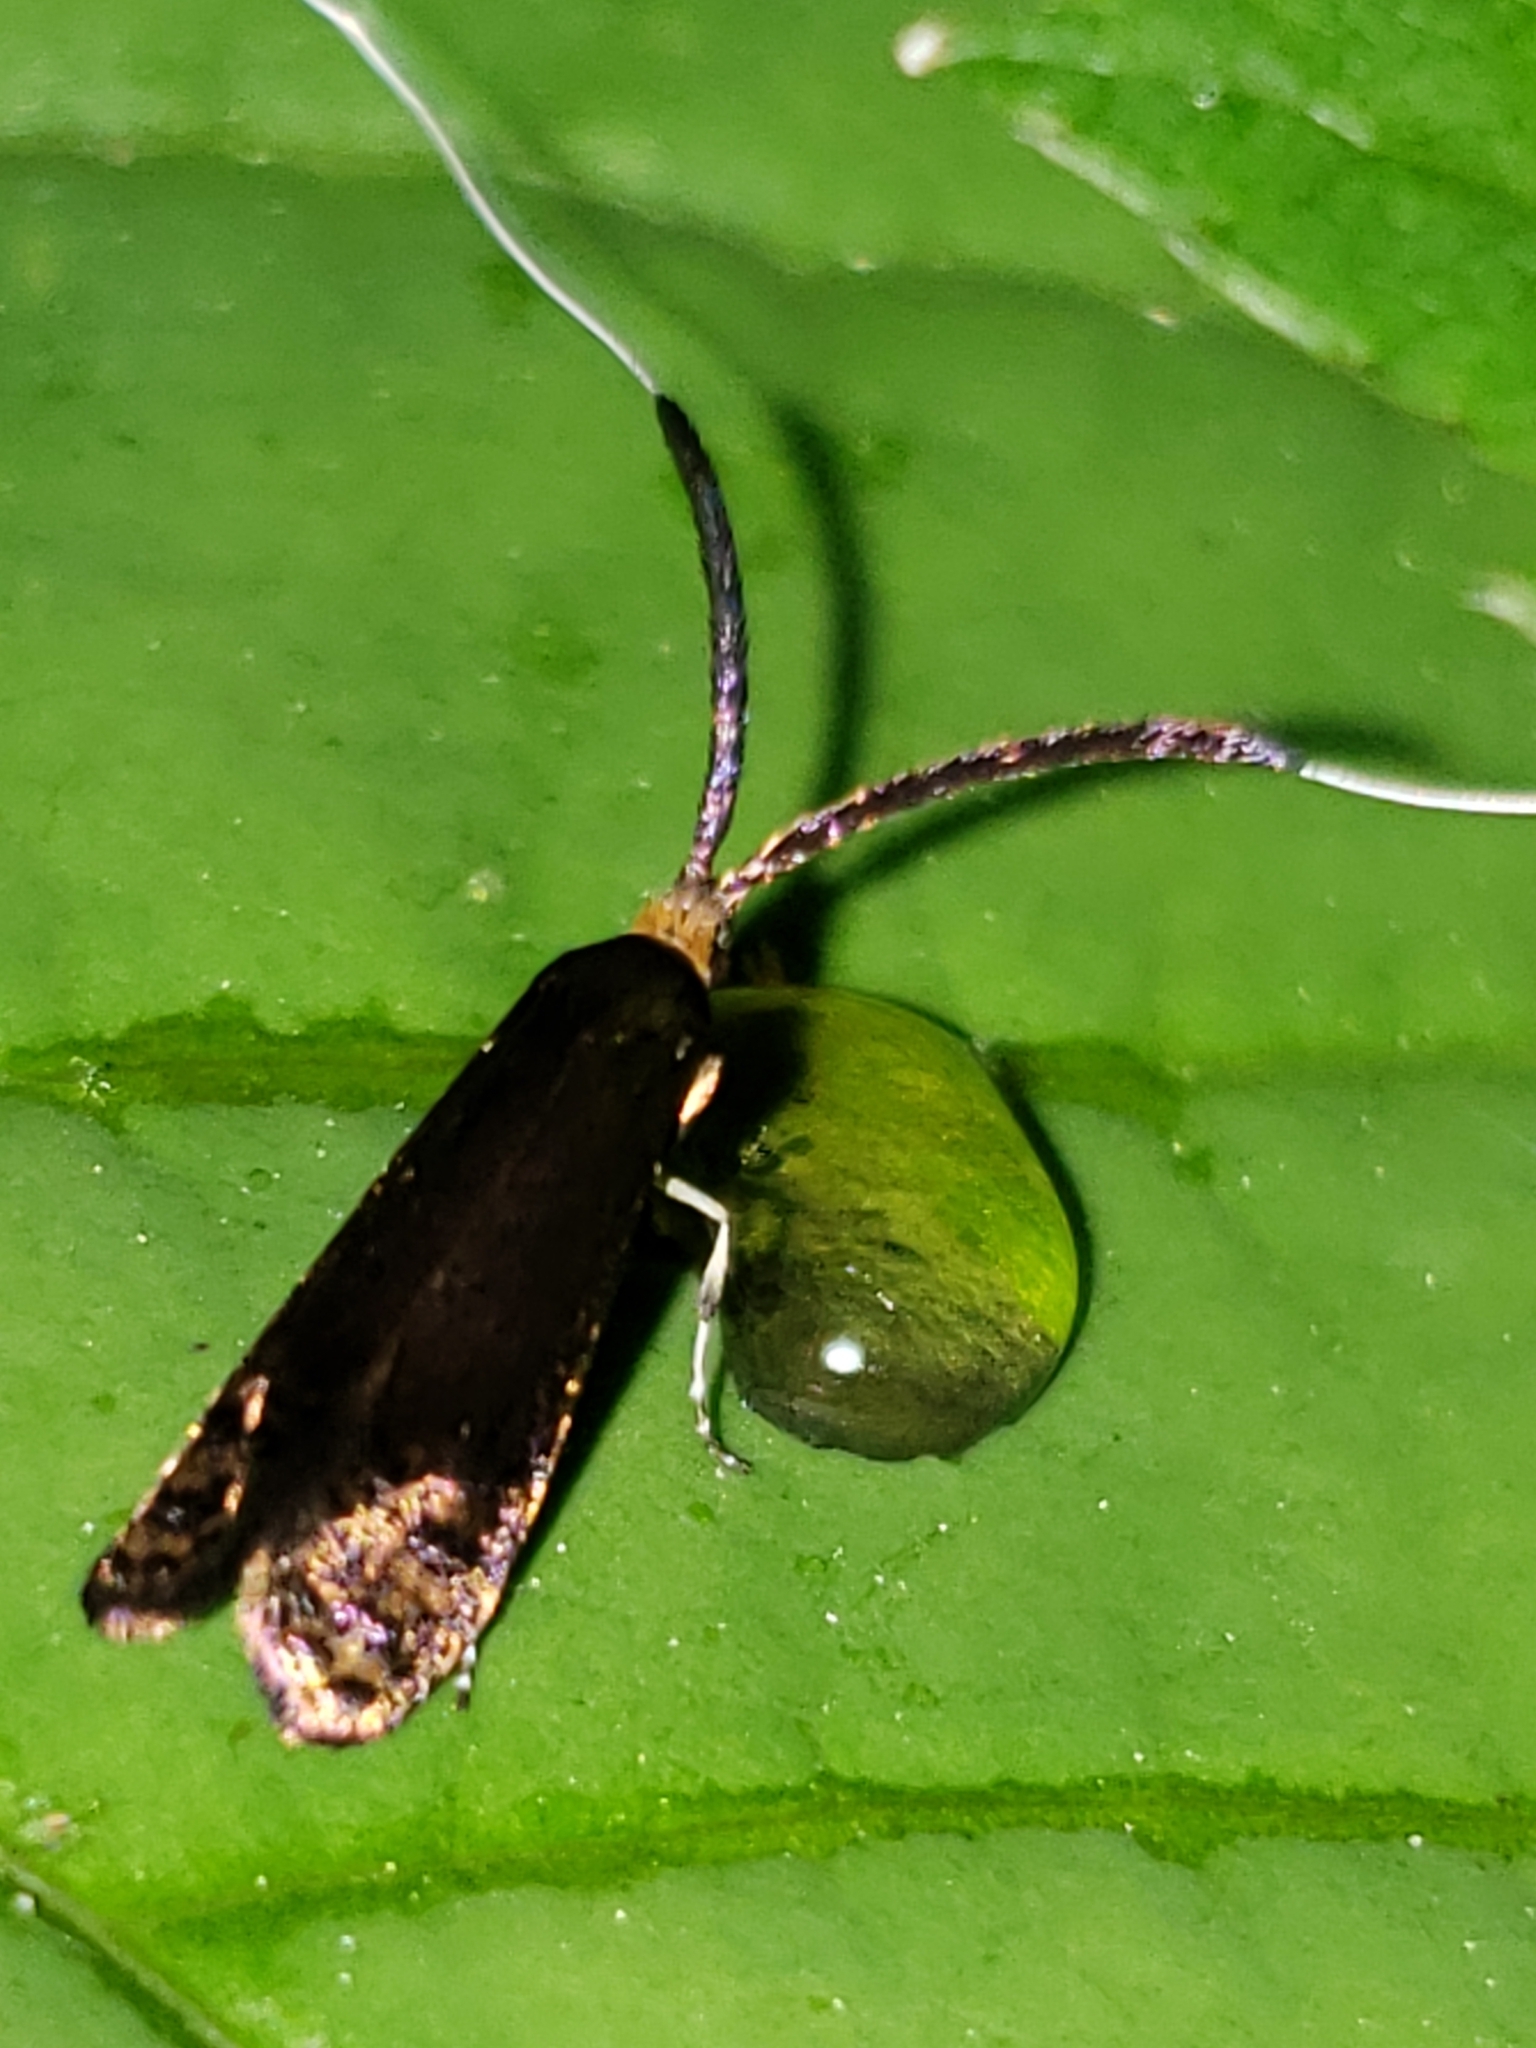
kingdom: Animalia
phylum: Arthropoda
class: Insecta
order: Lepidoptera
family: Adelidae
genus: Adela
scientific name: Adela caeruleella
